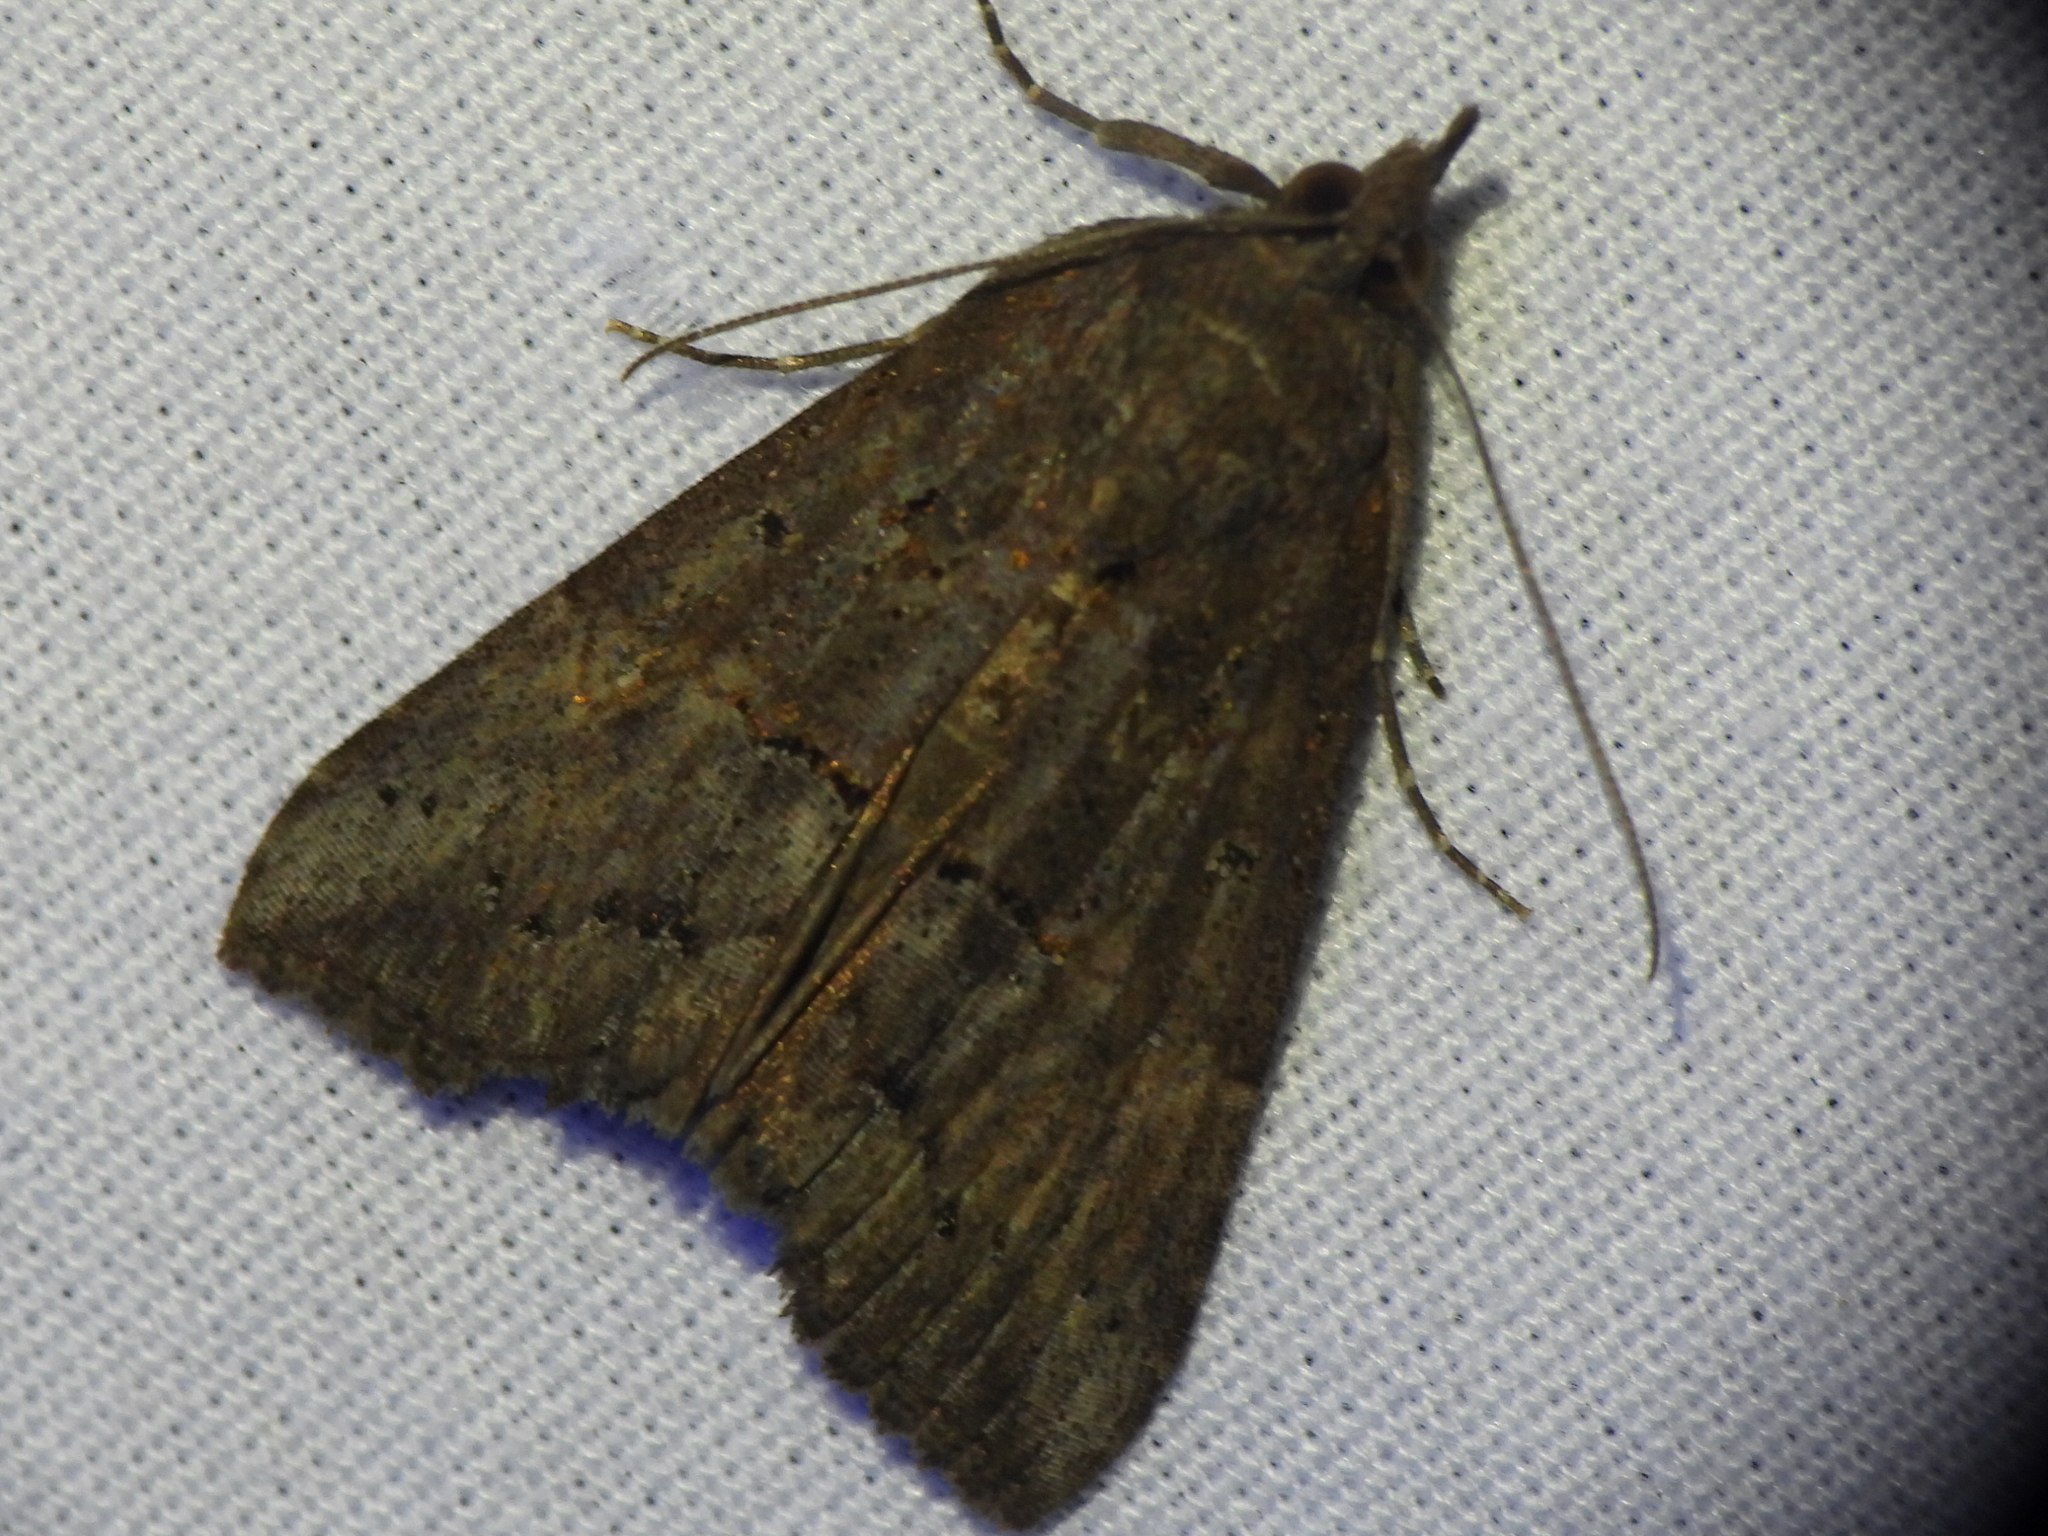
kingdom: Animalia
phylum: Arthropoda
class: Insecta
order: Lepidoptera
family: Erebidae
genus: Hypena
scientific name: Hypena scabra
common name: Green cloverworm
